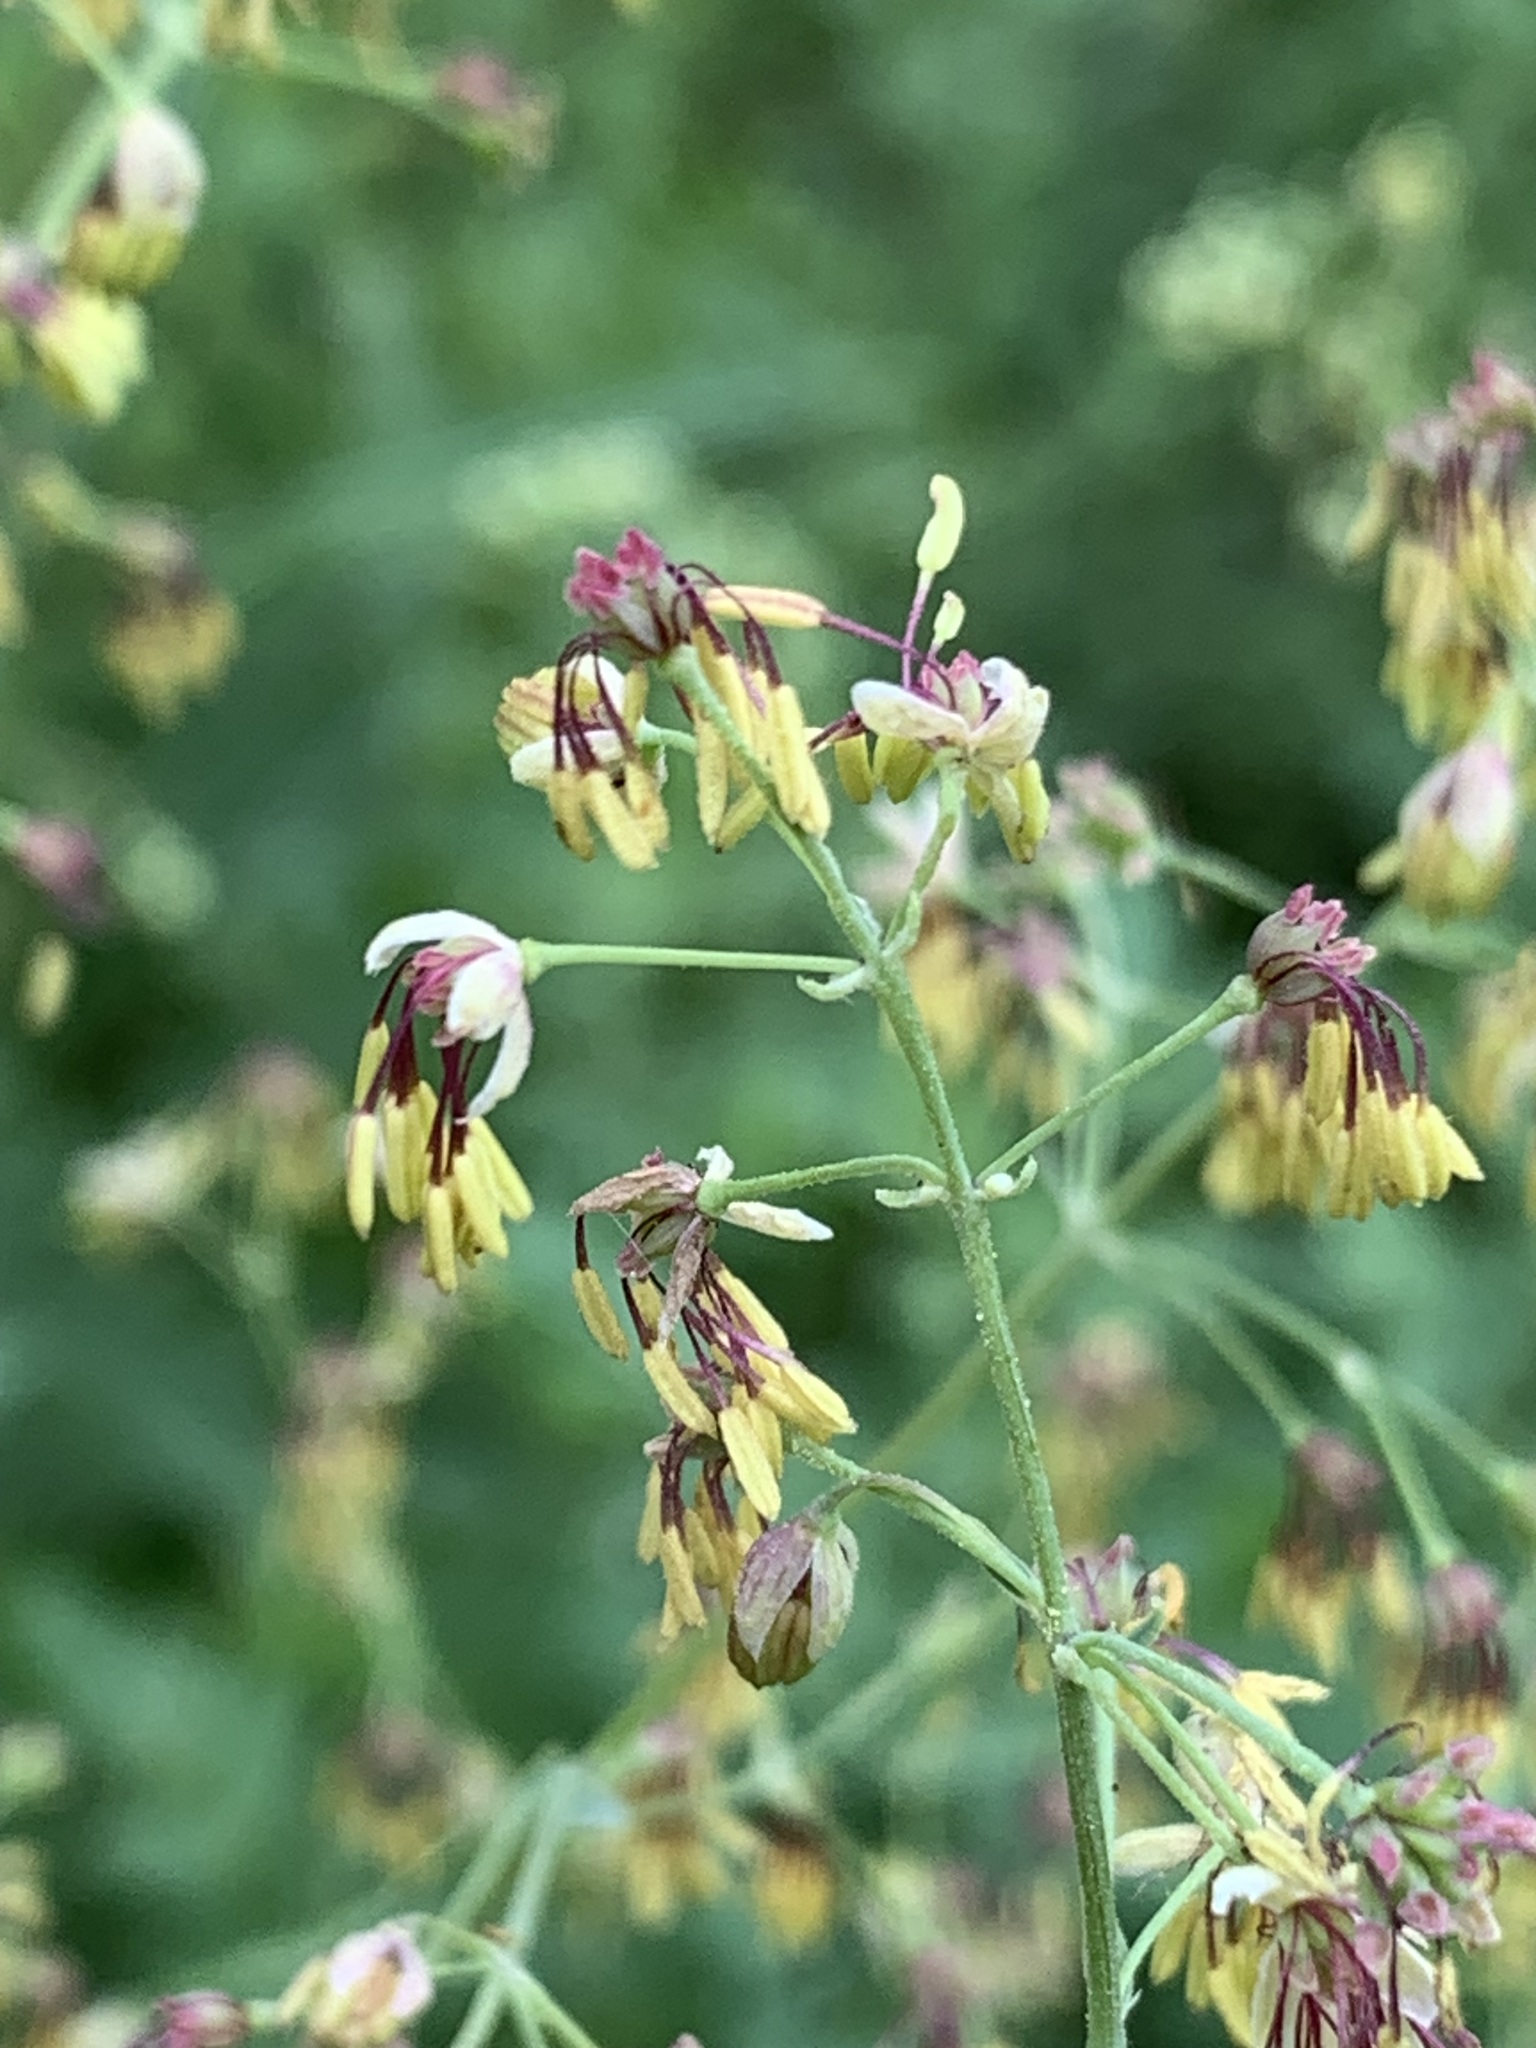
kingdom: Plantae
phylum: Tracheophyta
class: Magnoliopsida
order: Ranunculales
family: Ranunculaceae
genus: Thalictrum
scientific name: Thalictrum simplex
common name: Small meadow-rue
